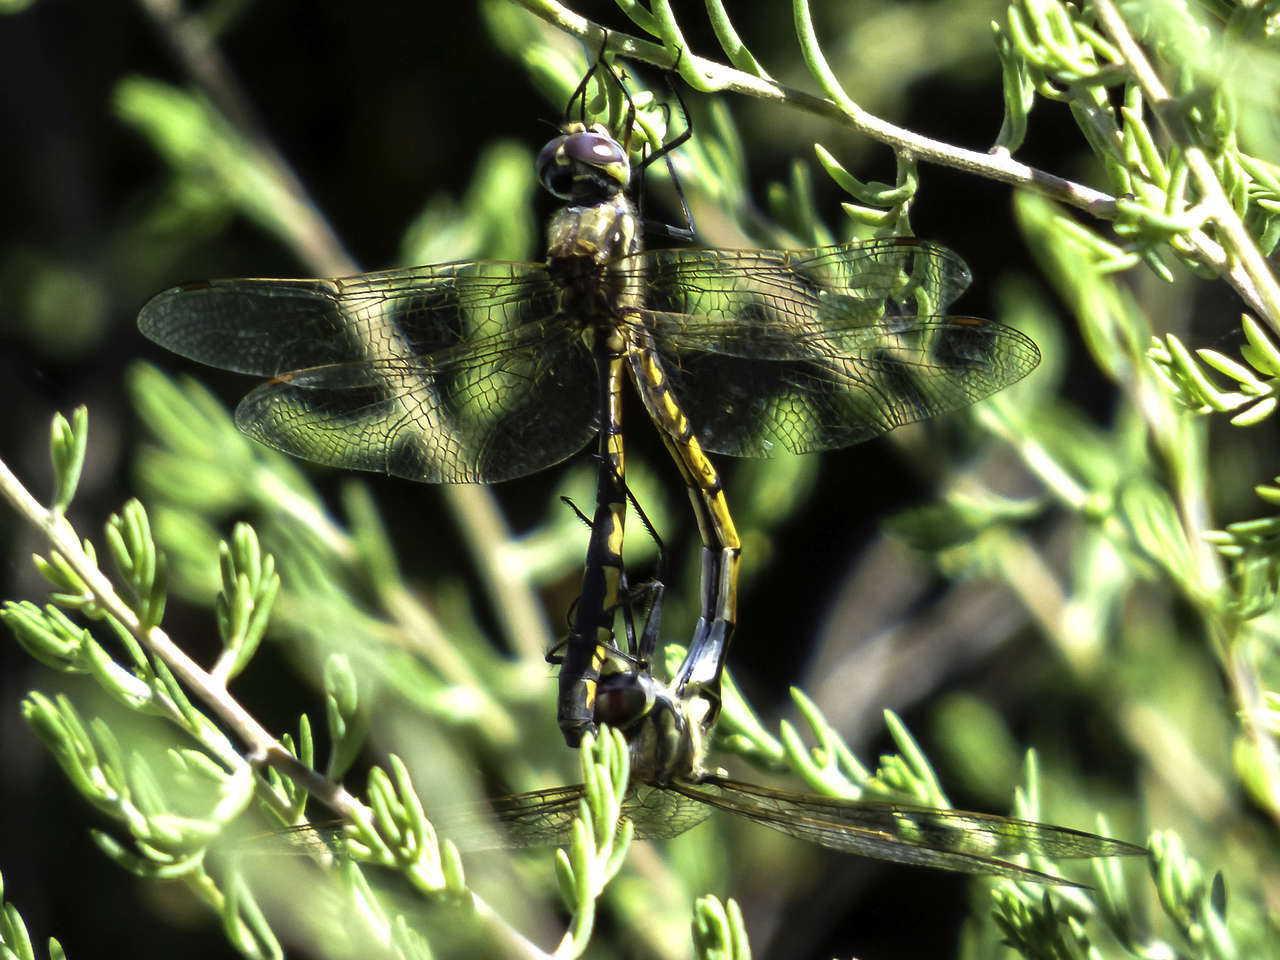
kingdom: Animalia
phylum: Arthropoda
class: Insecta
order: Odonata
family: Corduliidae
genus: Hemicordulia
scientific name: Hemicordulia tau
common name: Tau emerald
